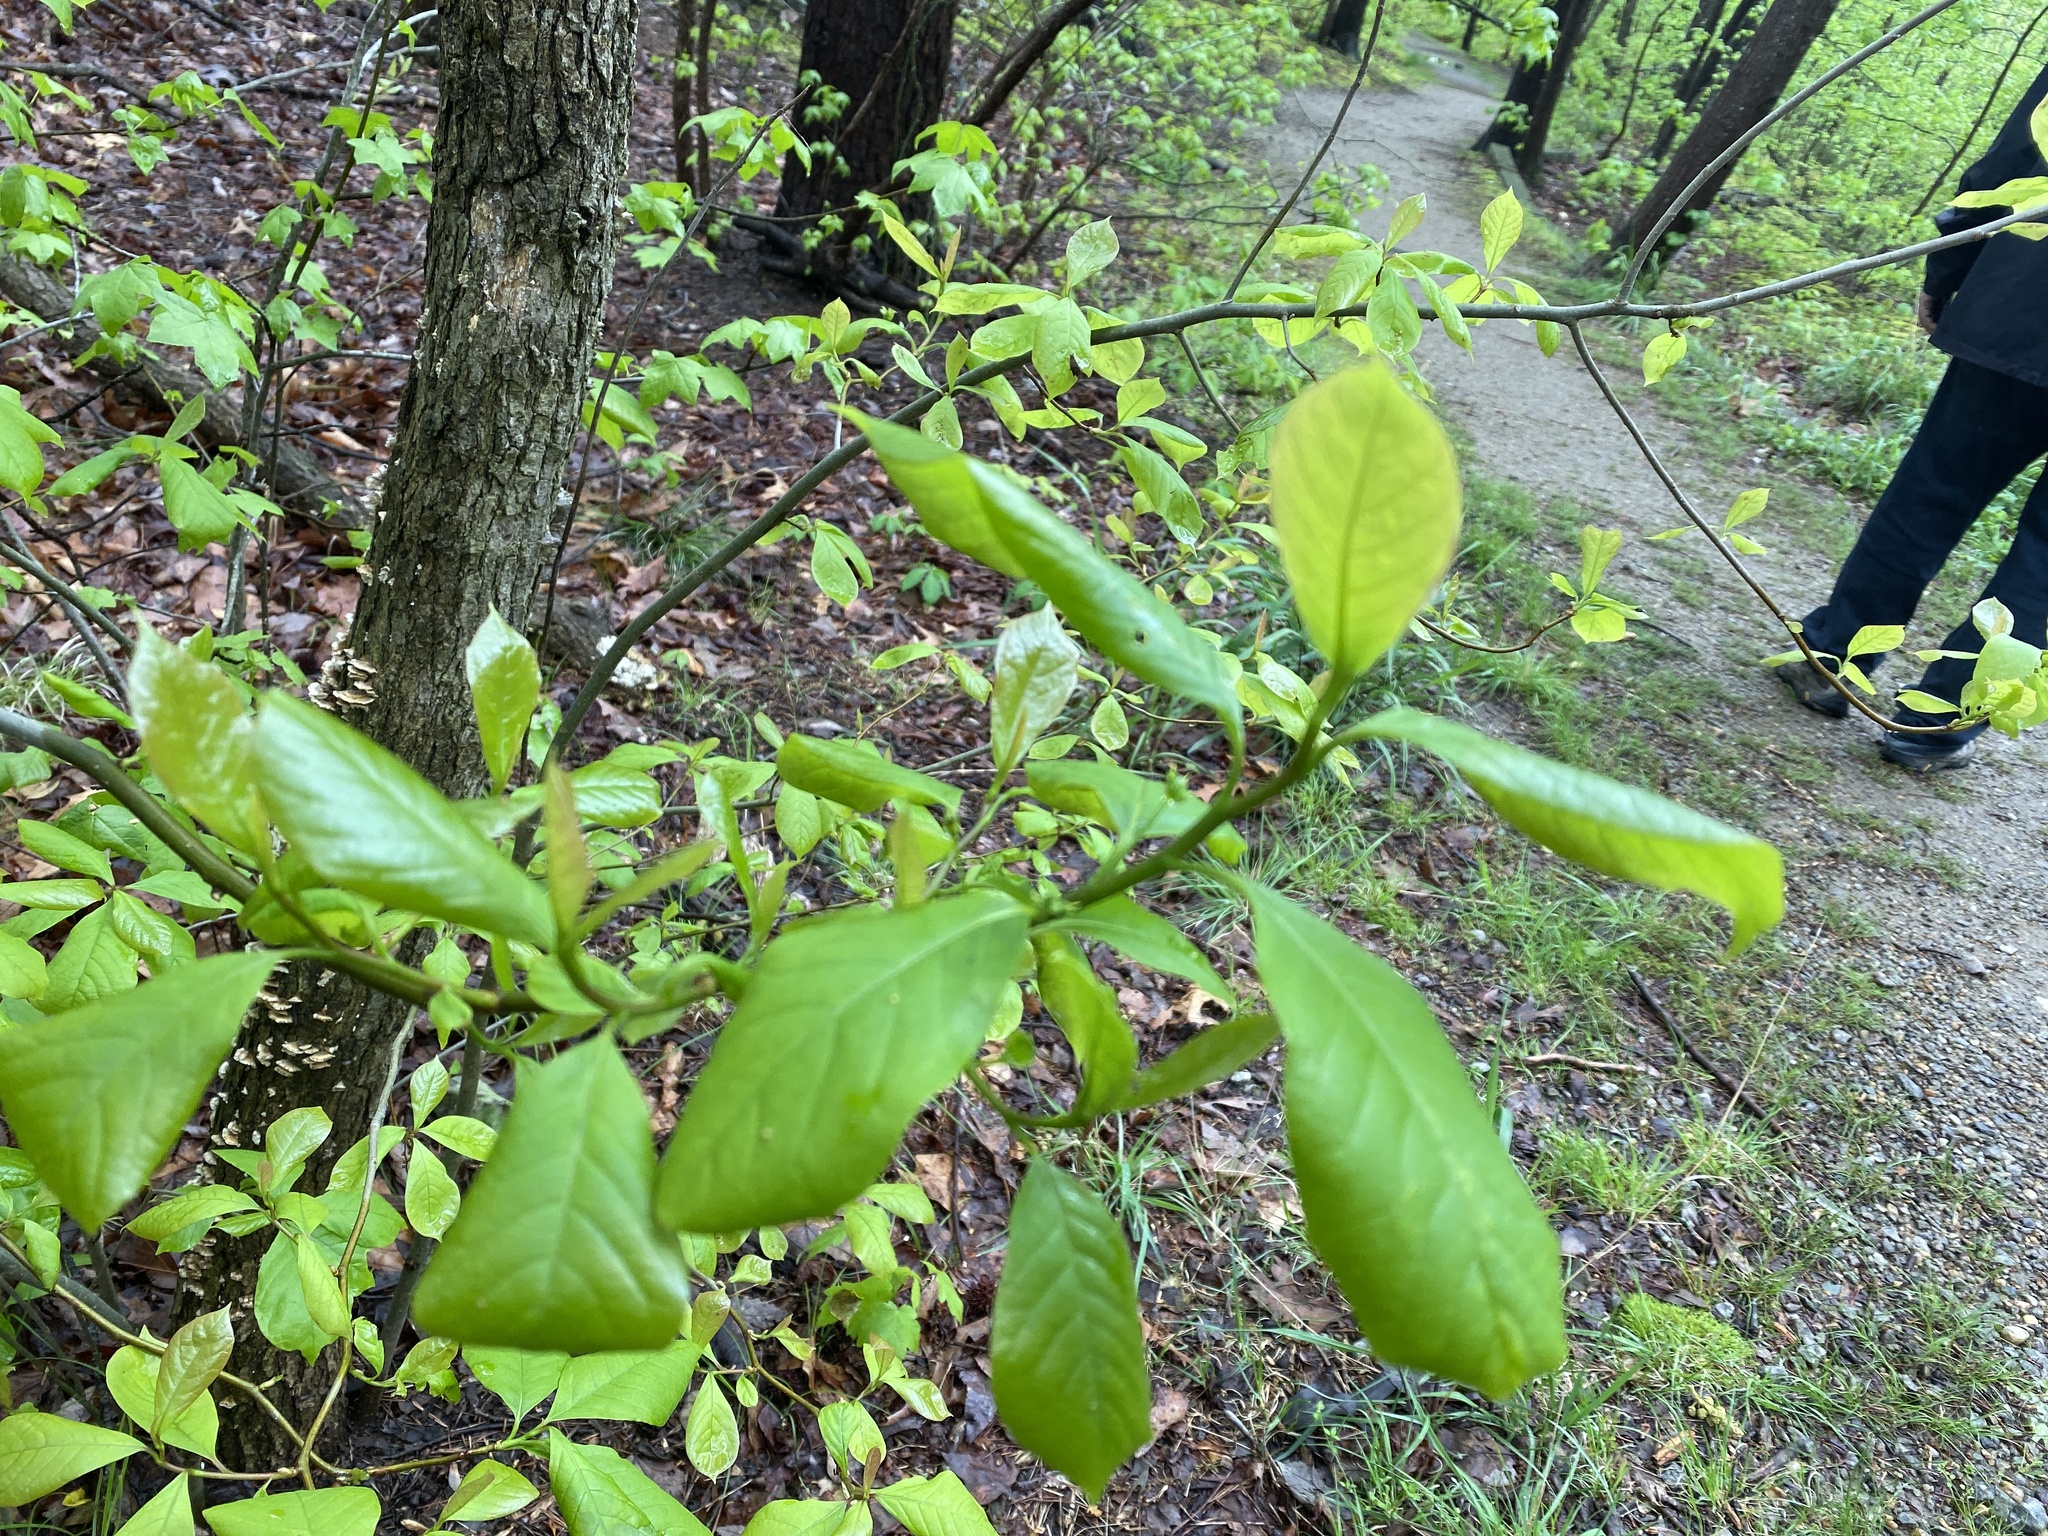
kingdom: Plantae
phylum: Tracheophyta
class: Magnoliopsida
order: Cornales
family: Nyssaceae
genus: Nyssa
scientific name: Nyssa sylvatica
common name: Black tupelo
